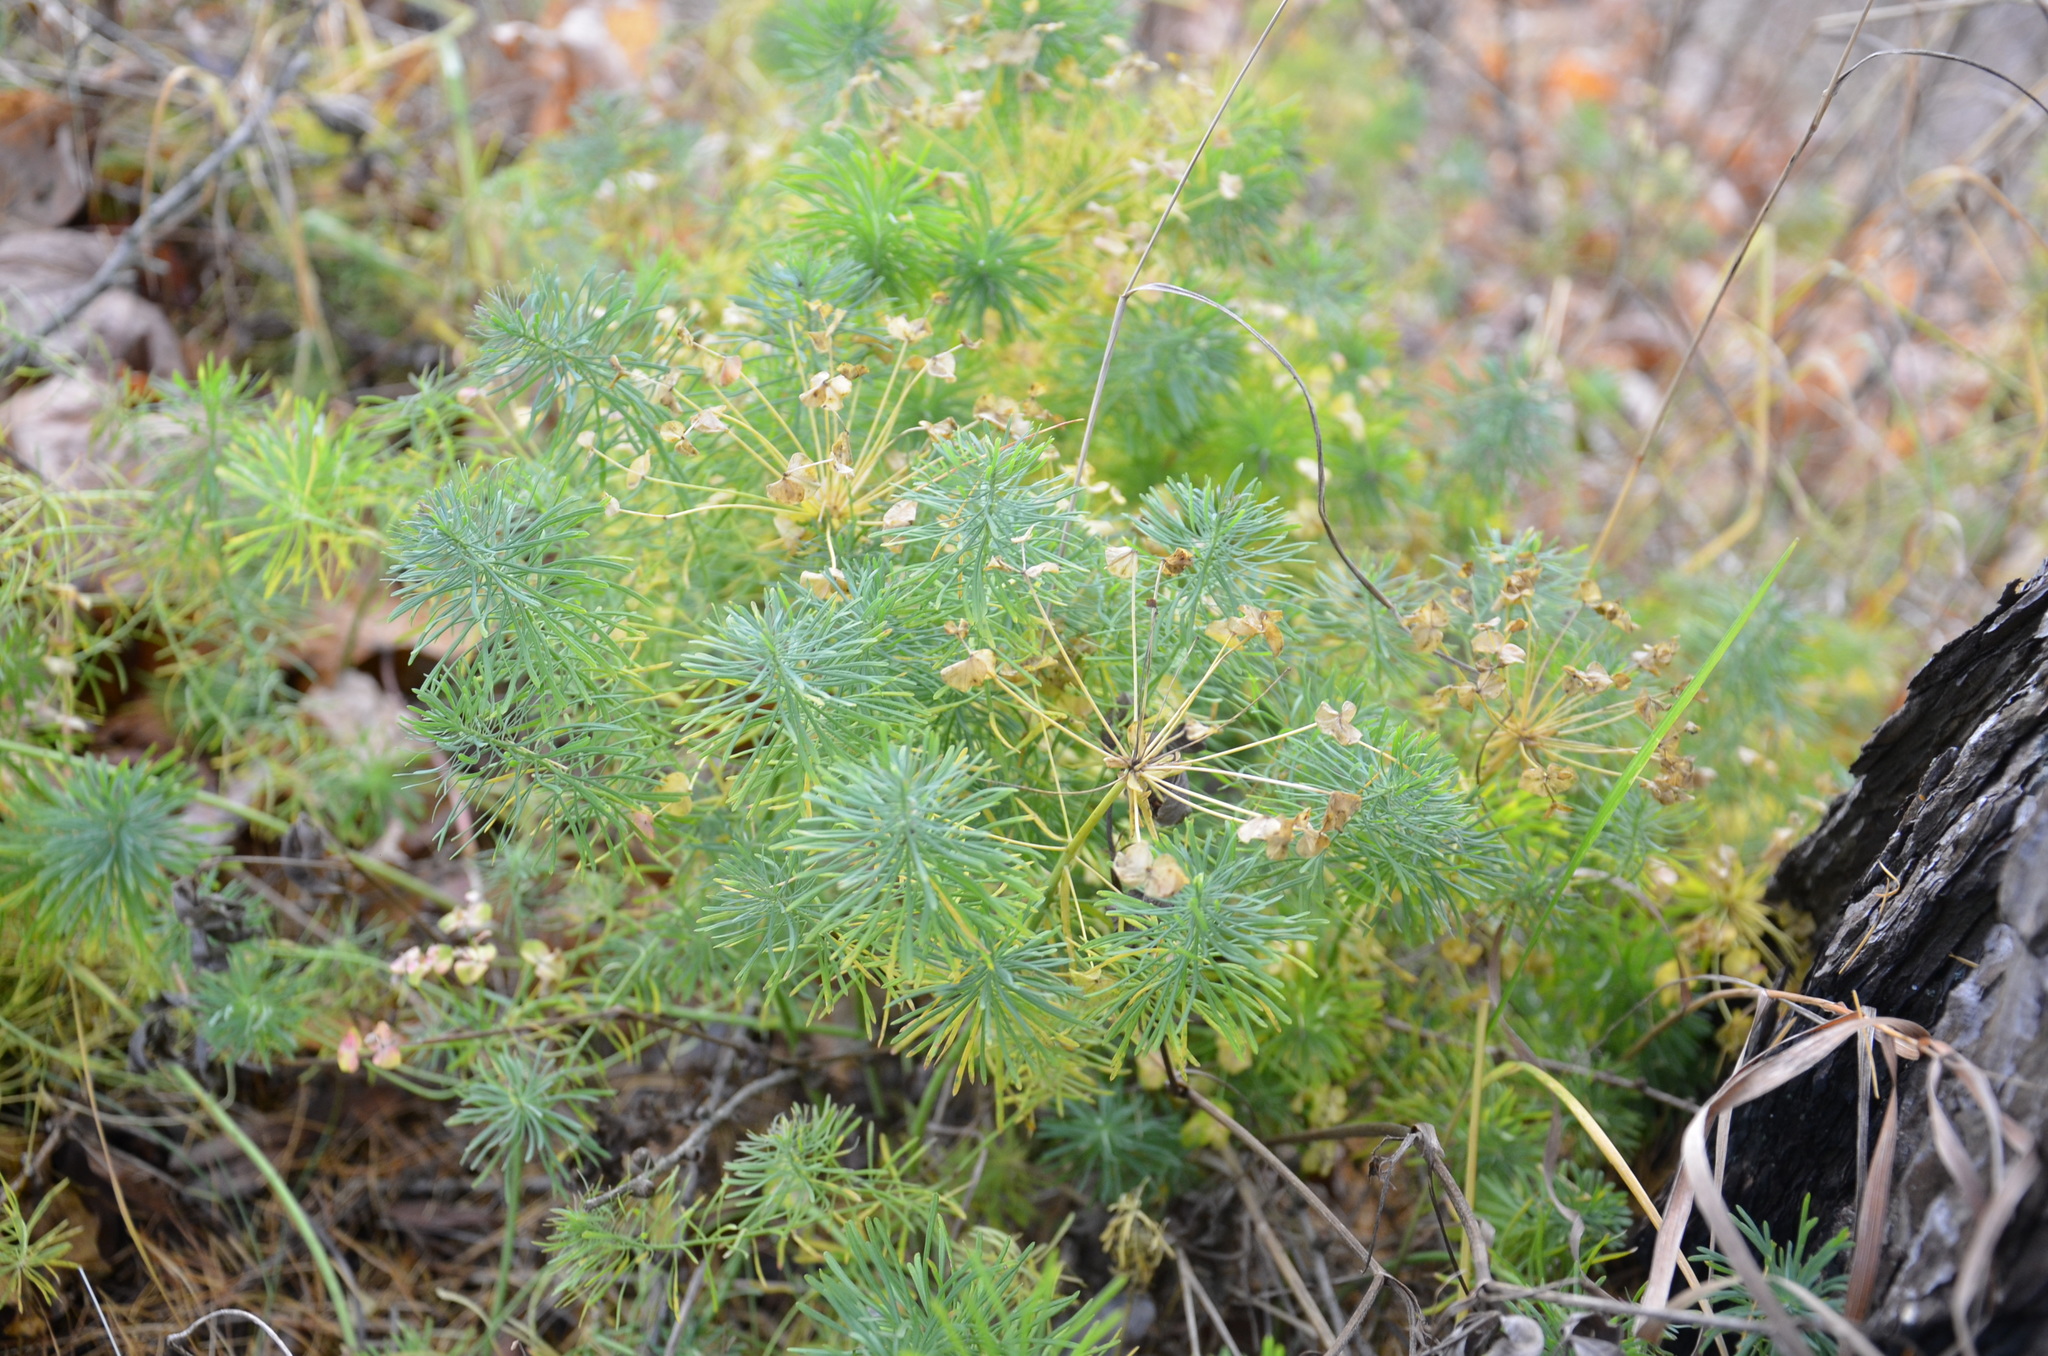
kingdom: Plantae
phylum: Tracheophyta
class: Magnoliopsida
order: Malpighiales
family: Euphorbiaceae
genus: Euphorbia
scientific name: Euphorbia cyparissias
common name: Cypress spurge
